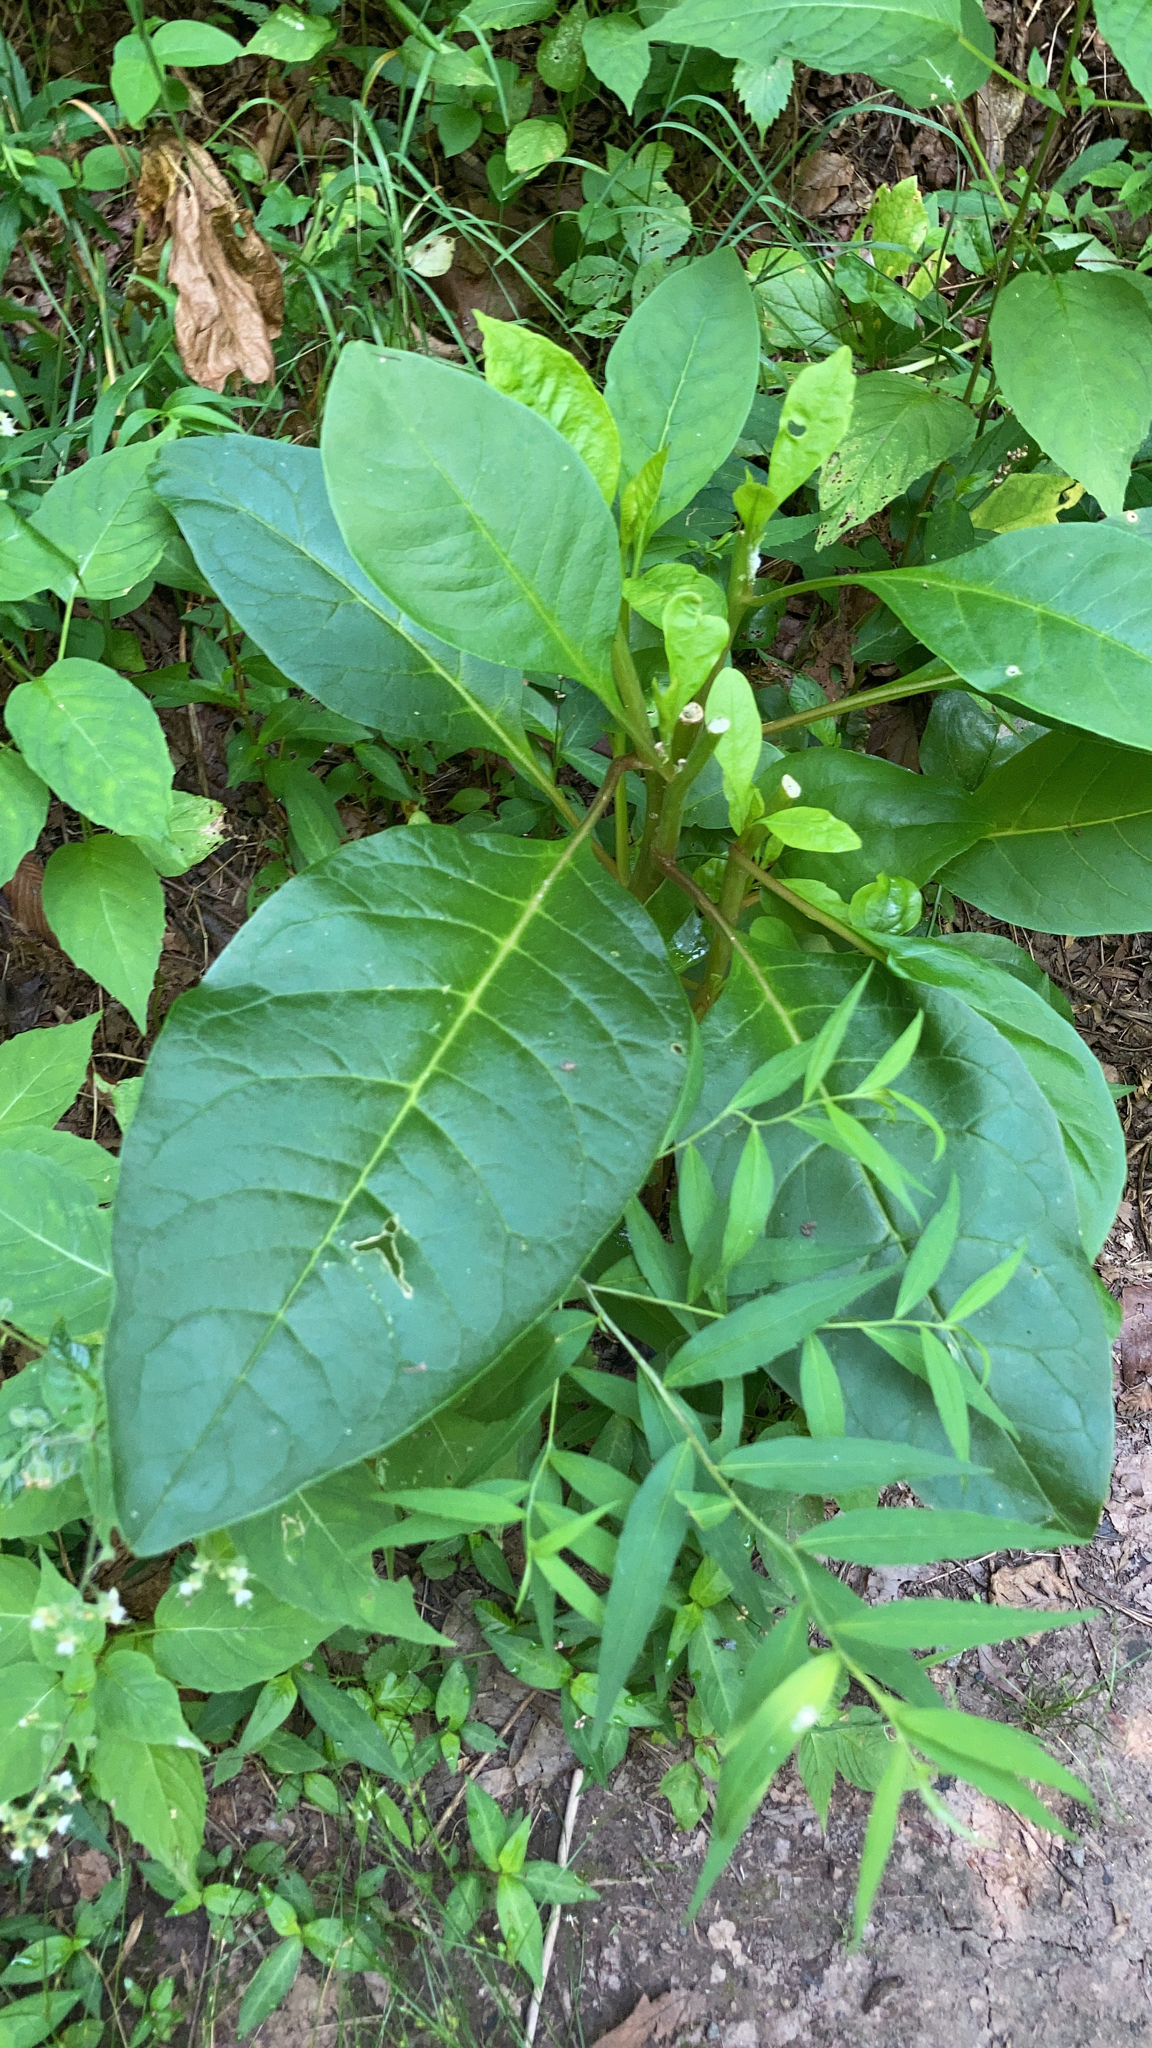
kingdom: Plantae
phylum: Tracheophyta
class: Magnoliopsida
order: Caryophyllales
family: Phytolaccaceae
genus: Phytolacca
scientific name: Phytolacca americana
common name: American pokeweed
